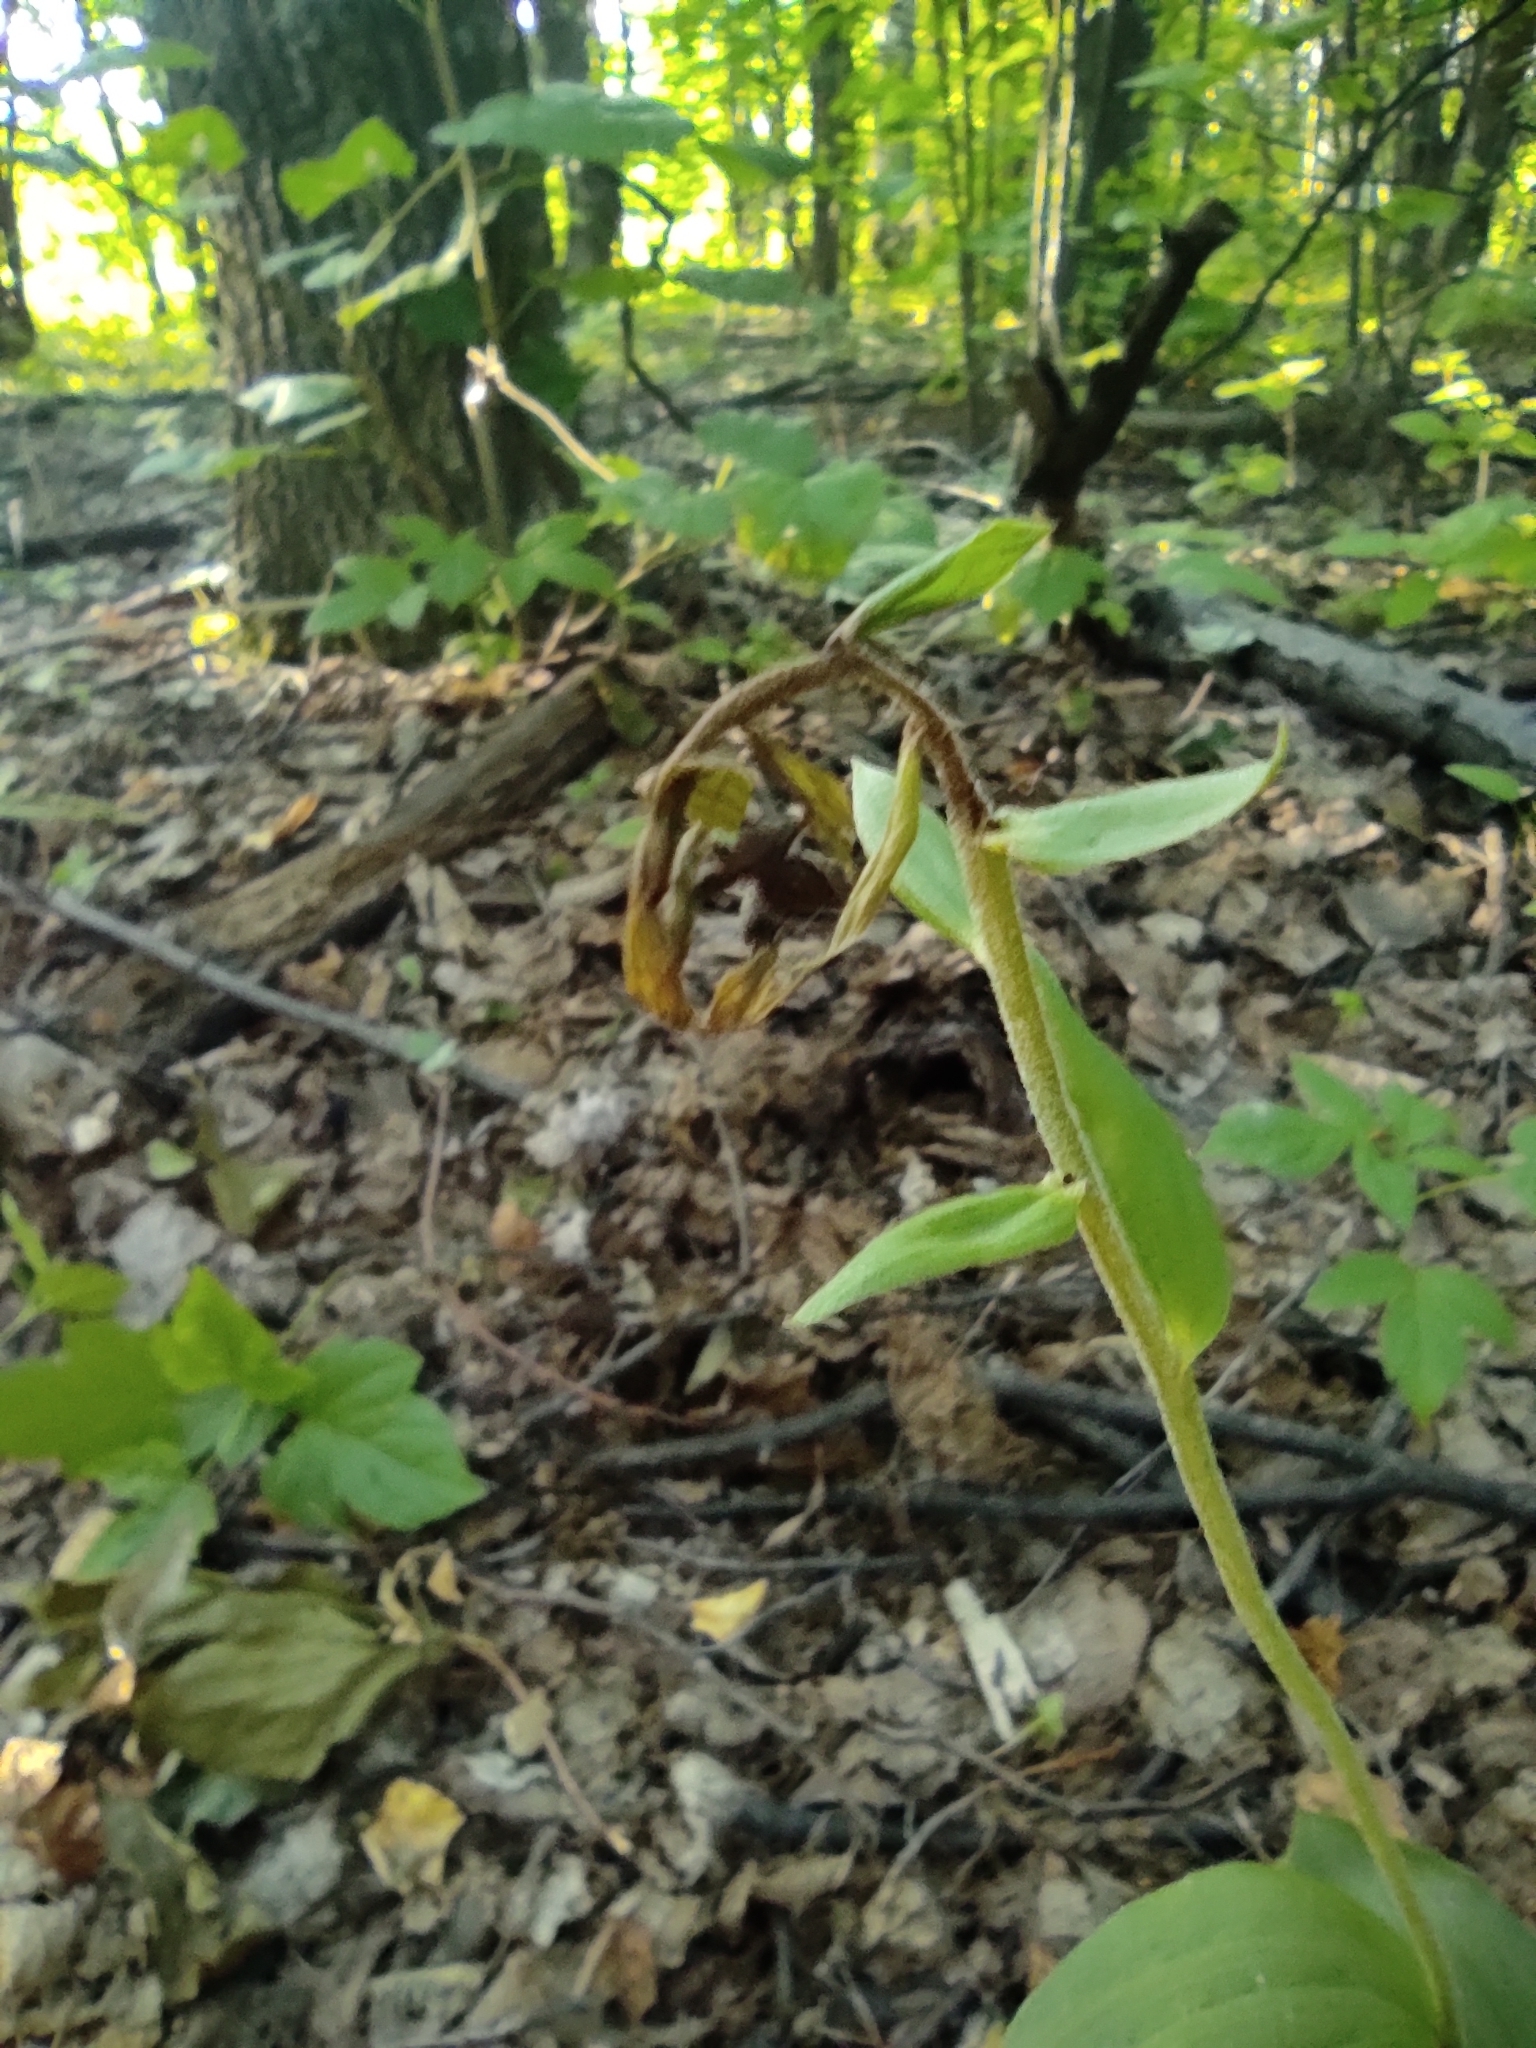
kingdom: Plantae
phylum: Tracheophyta
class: Liliopsida
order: Asparagales
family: Orchidaceae
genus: Epipactis
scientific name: Epipactis helleborine
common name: Broad-leaved helleborine
